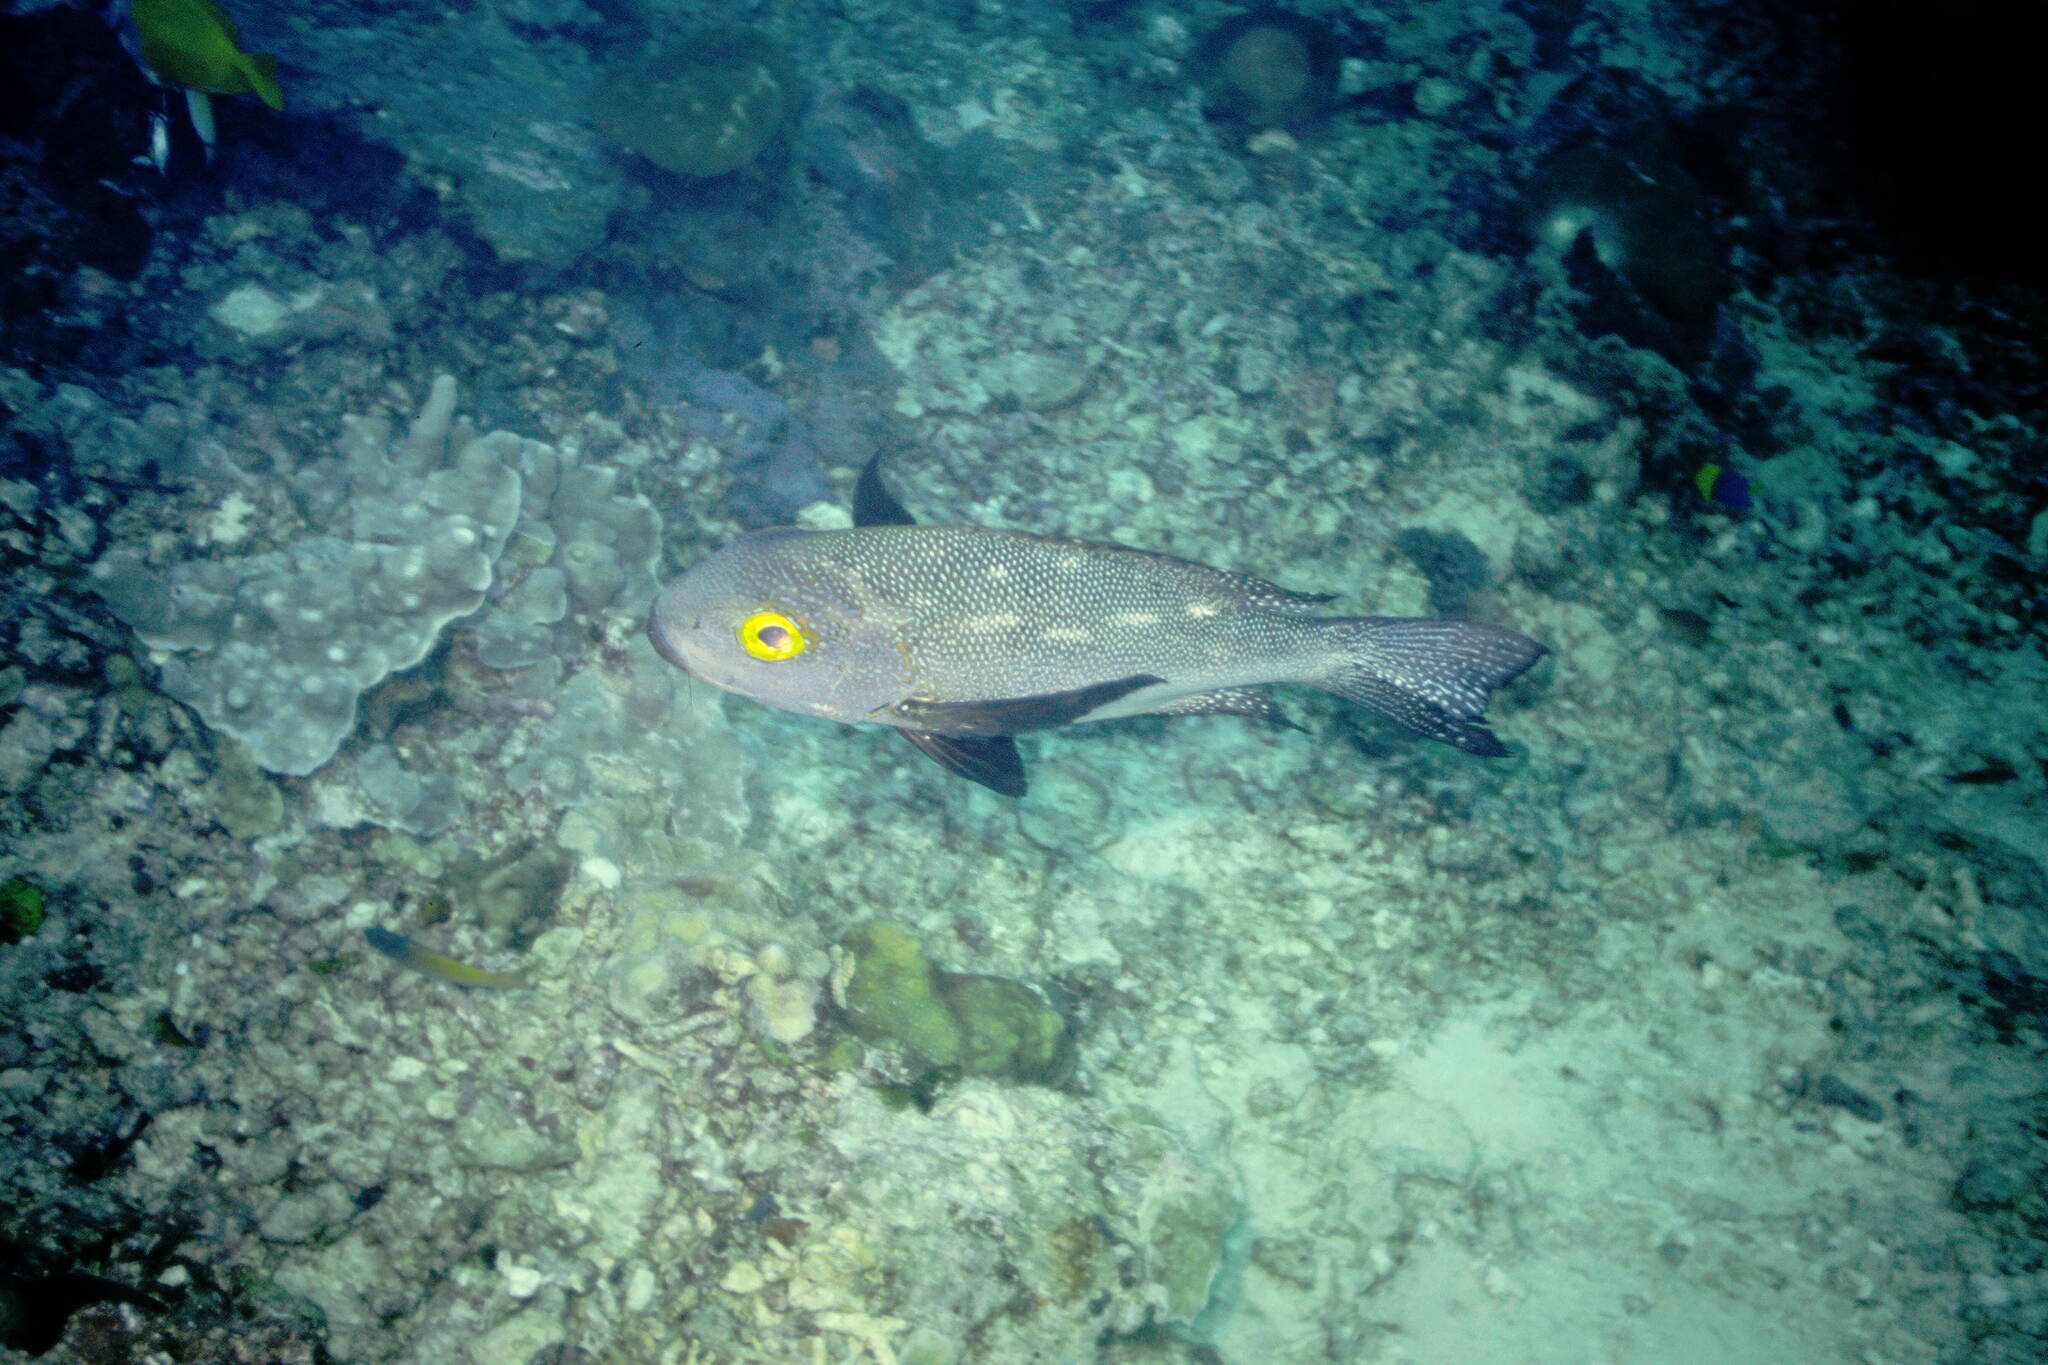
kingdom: Animalia
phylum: Chordata
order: Perciformes
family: Lutjanidae
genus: Macolor
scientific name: Macolor macularis
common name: Midnight snapper
